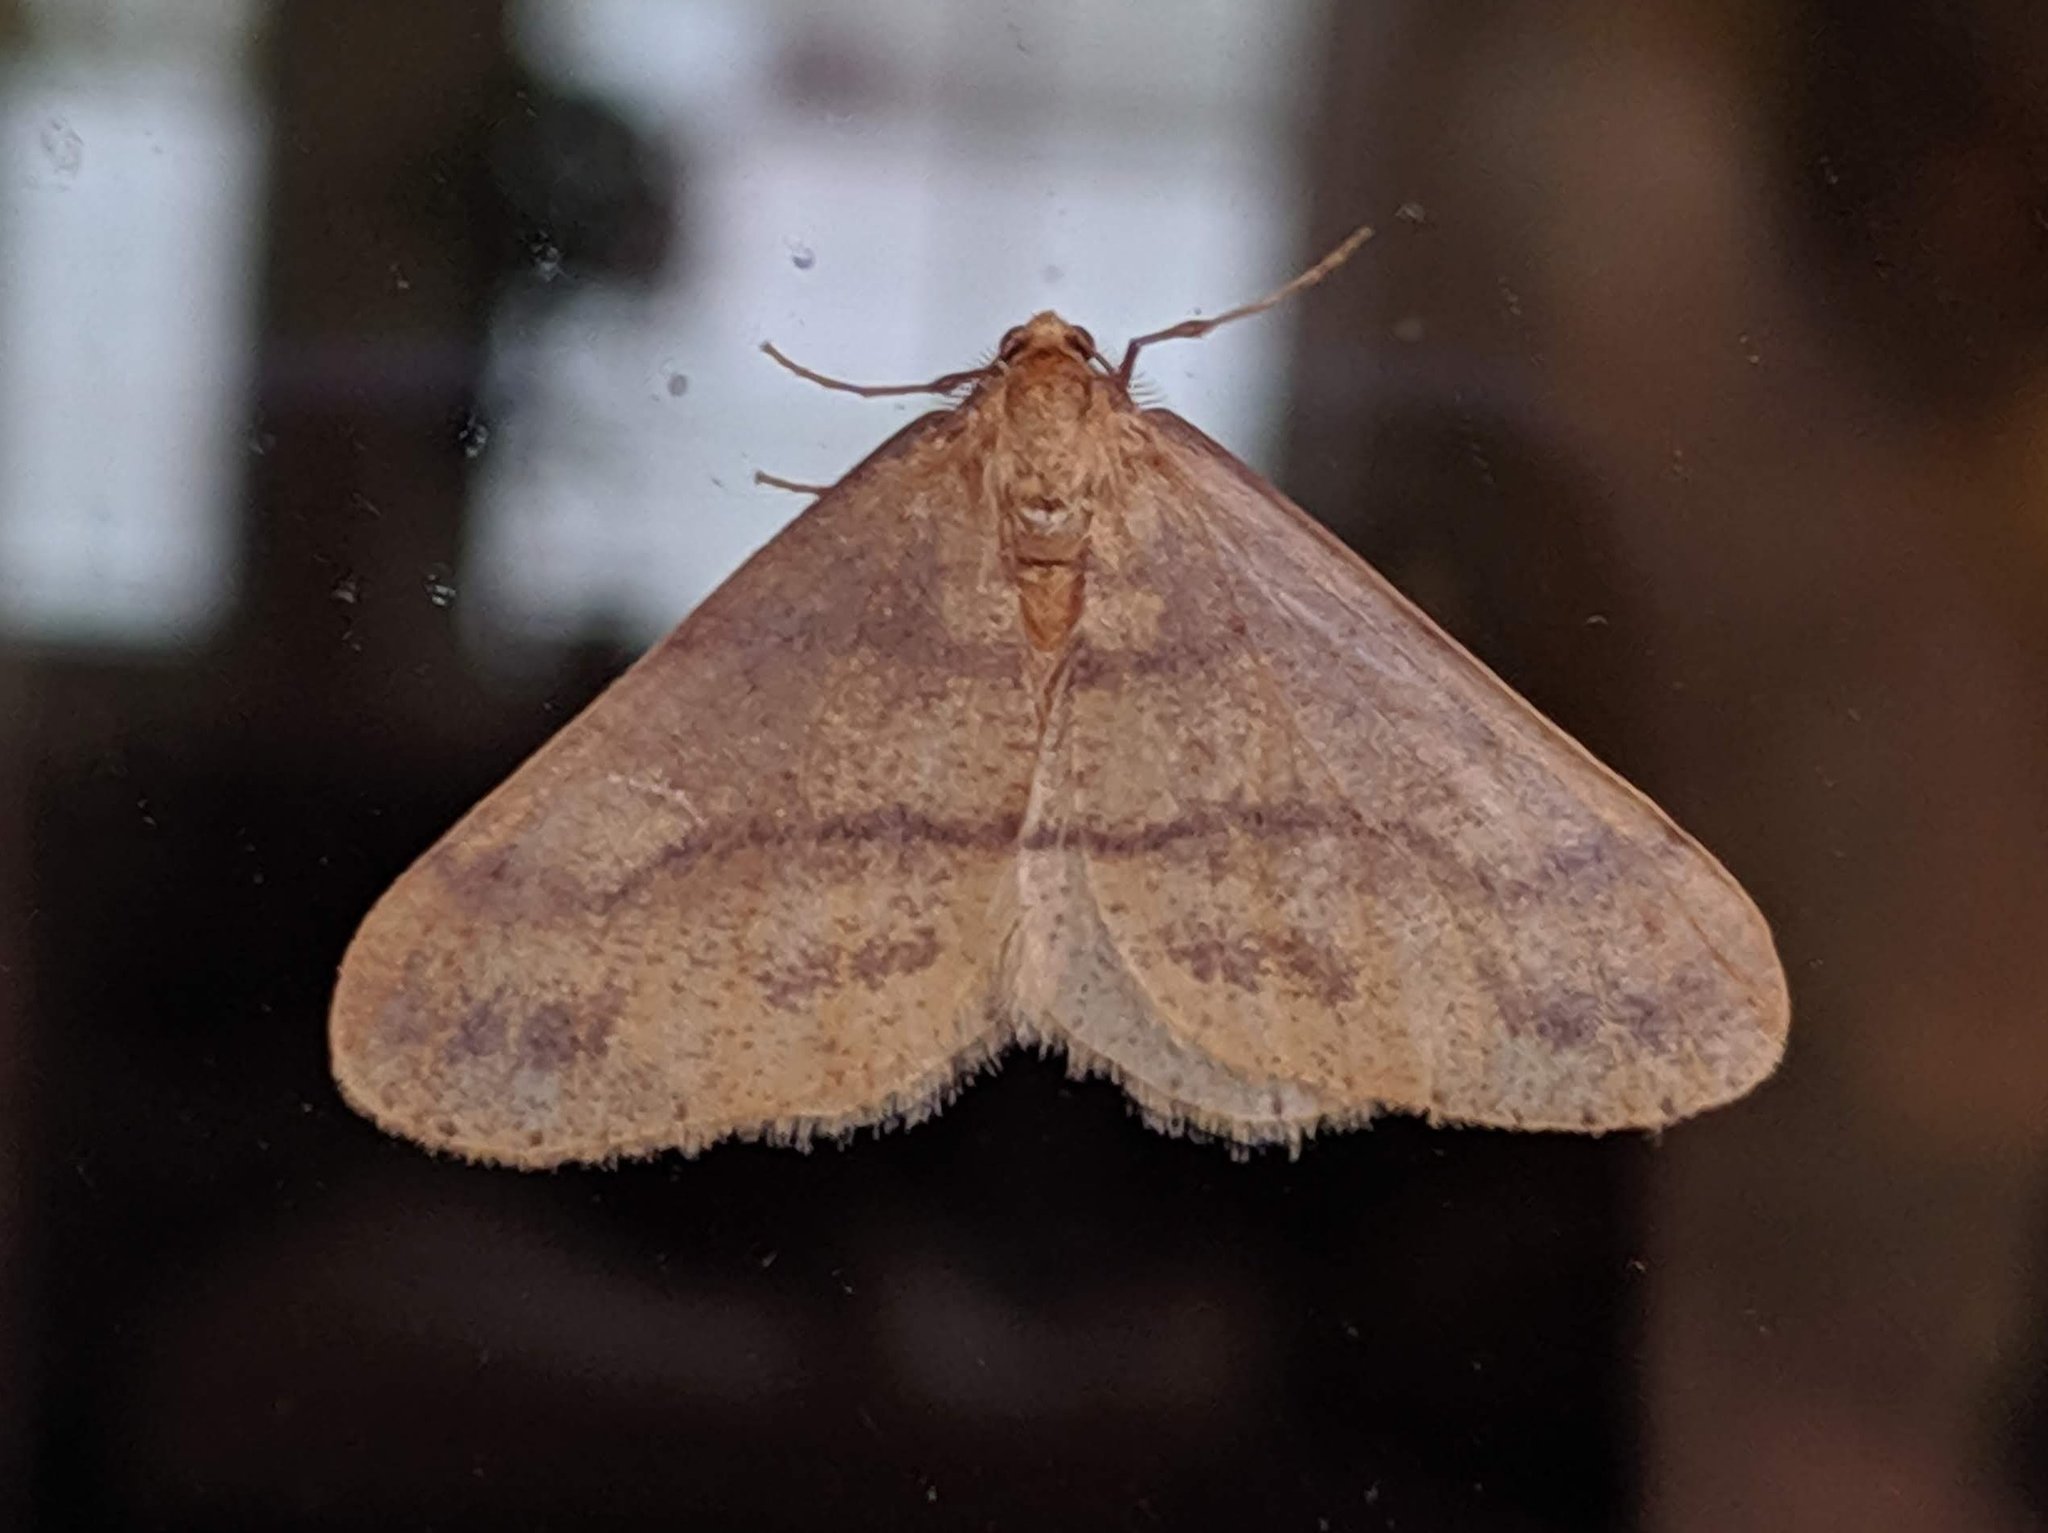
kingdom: Animalia
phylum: Arthropoda
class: Insecta
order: Lepidoptera
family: Geometridae
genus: Agriopis
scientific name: Agriopis aurantiaria
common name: Scarce umber
